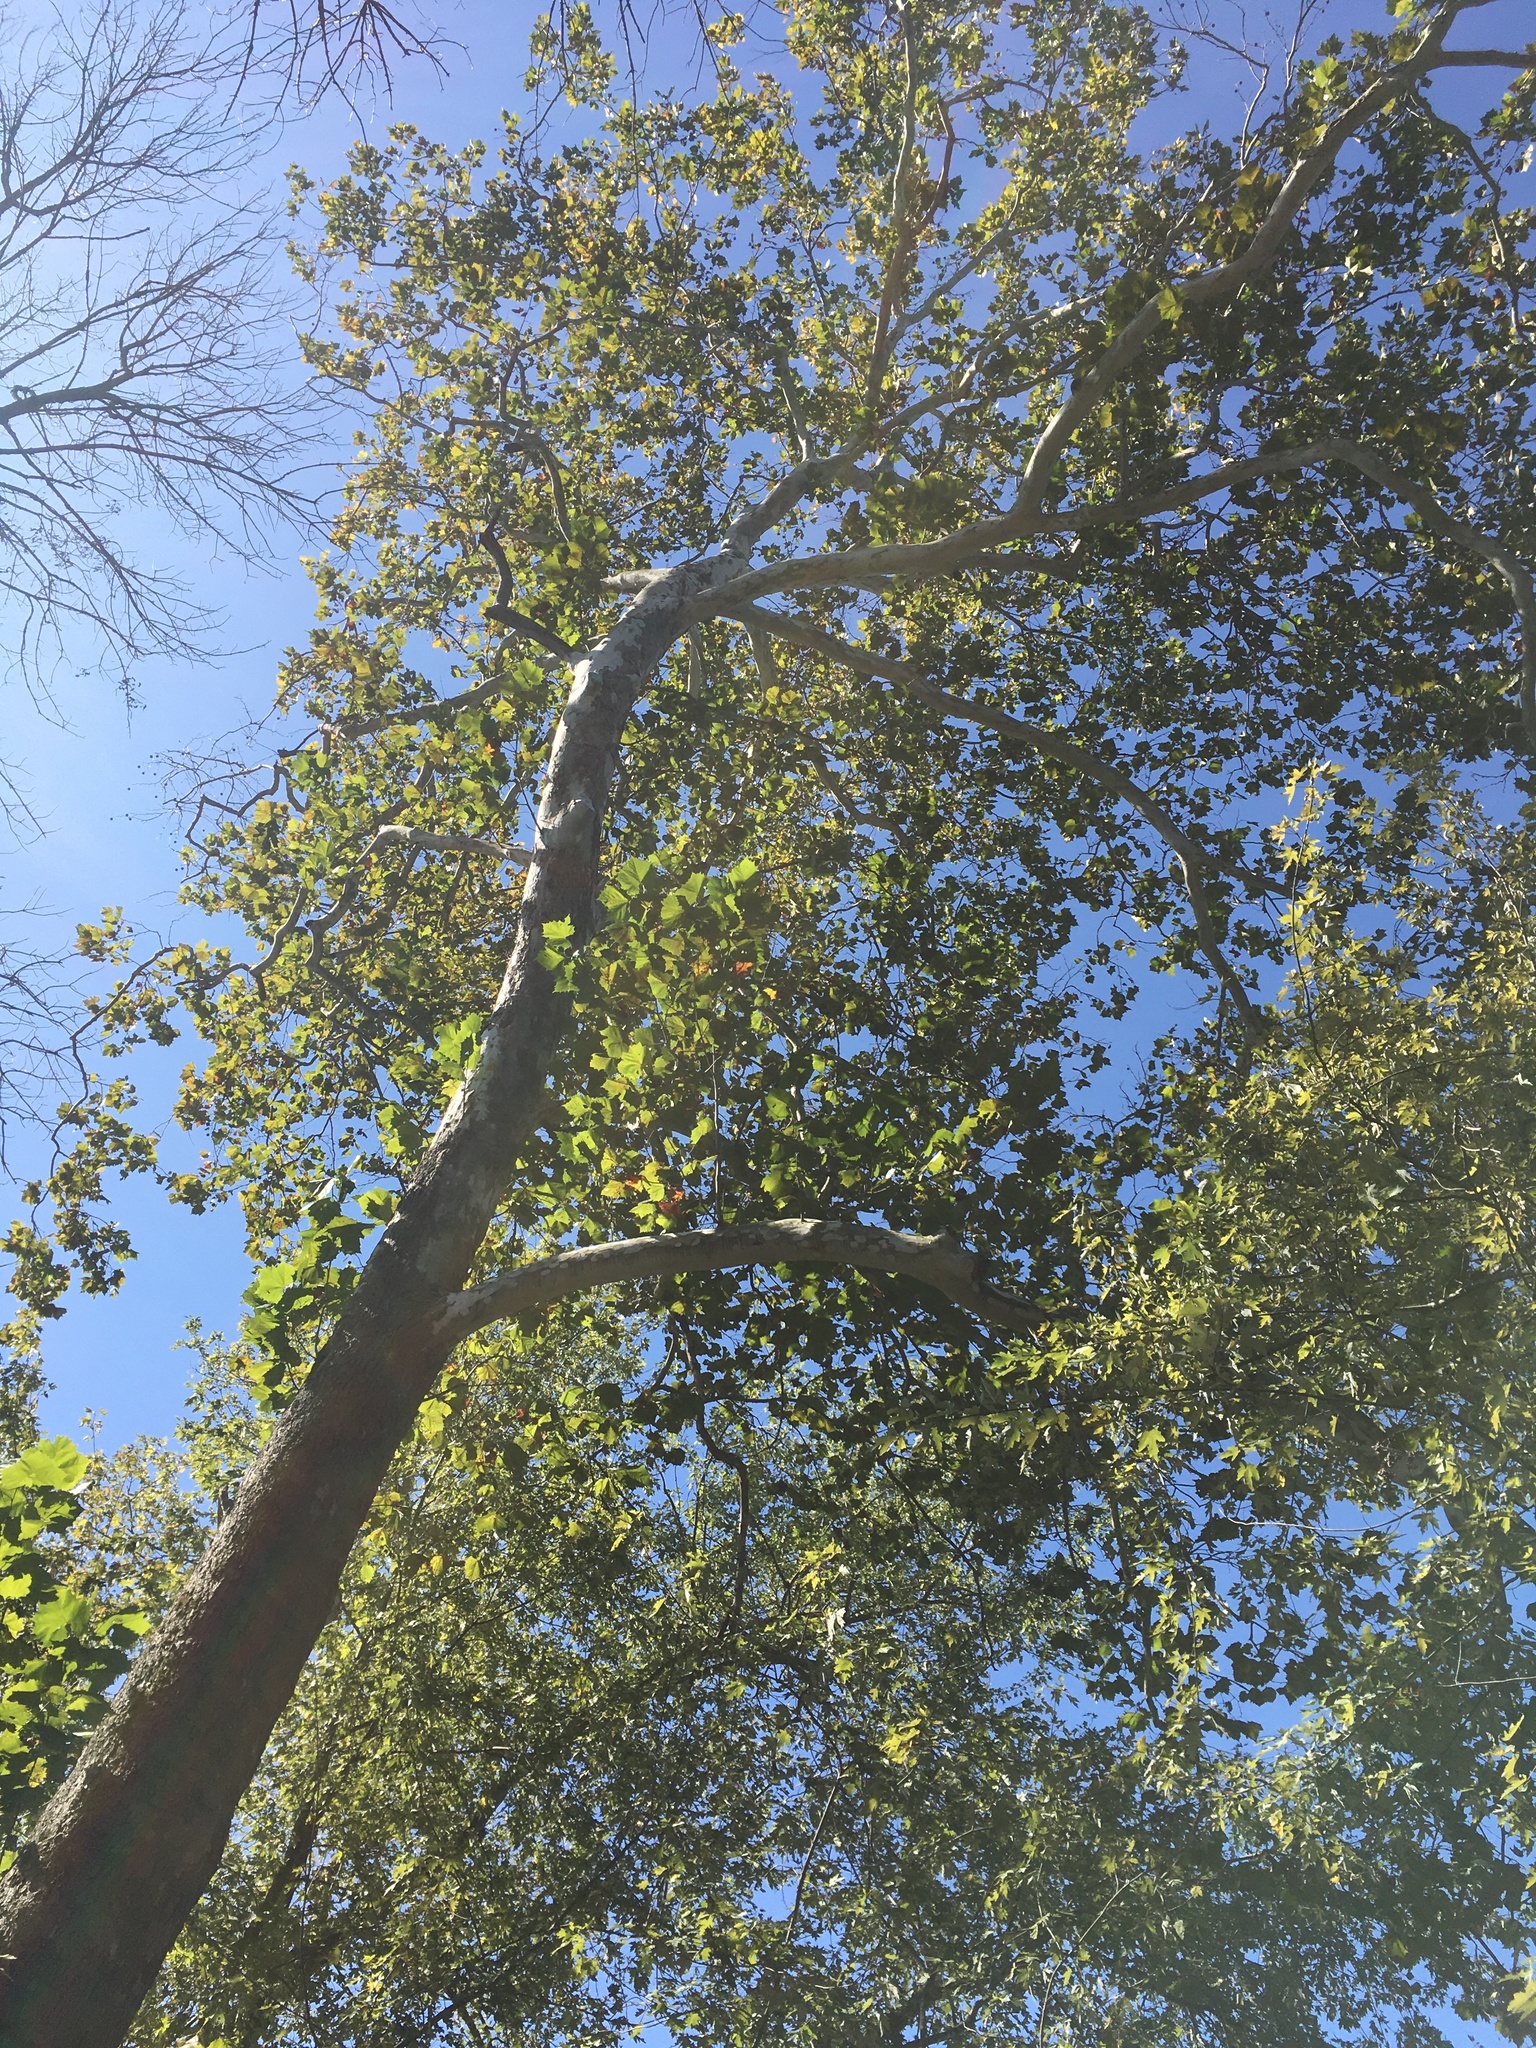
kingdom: Plantae
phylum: Tracheophyta
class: Magnoliopsida
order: Proteales
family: Platanaceae
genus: Platanus
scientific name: Platanus occidentalis
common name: American sycamore
